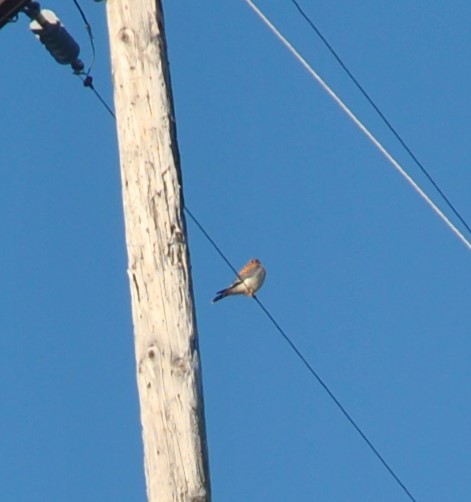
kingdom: Animalia
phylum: Chordata
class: Aves
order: Falconiformes
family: Falconidae
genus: Falco
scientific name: Falco sparverius
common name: American kestrel
